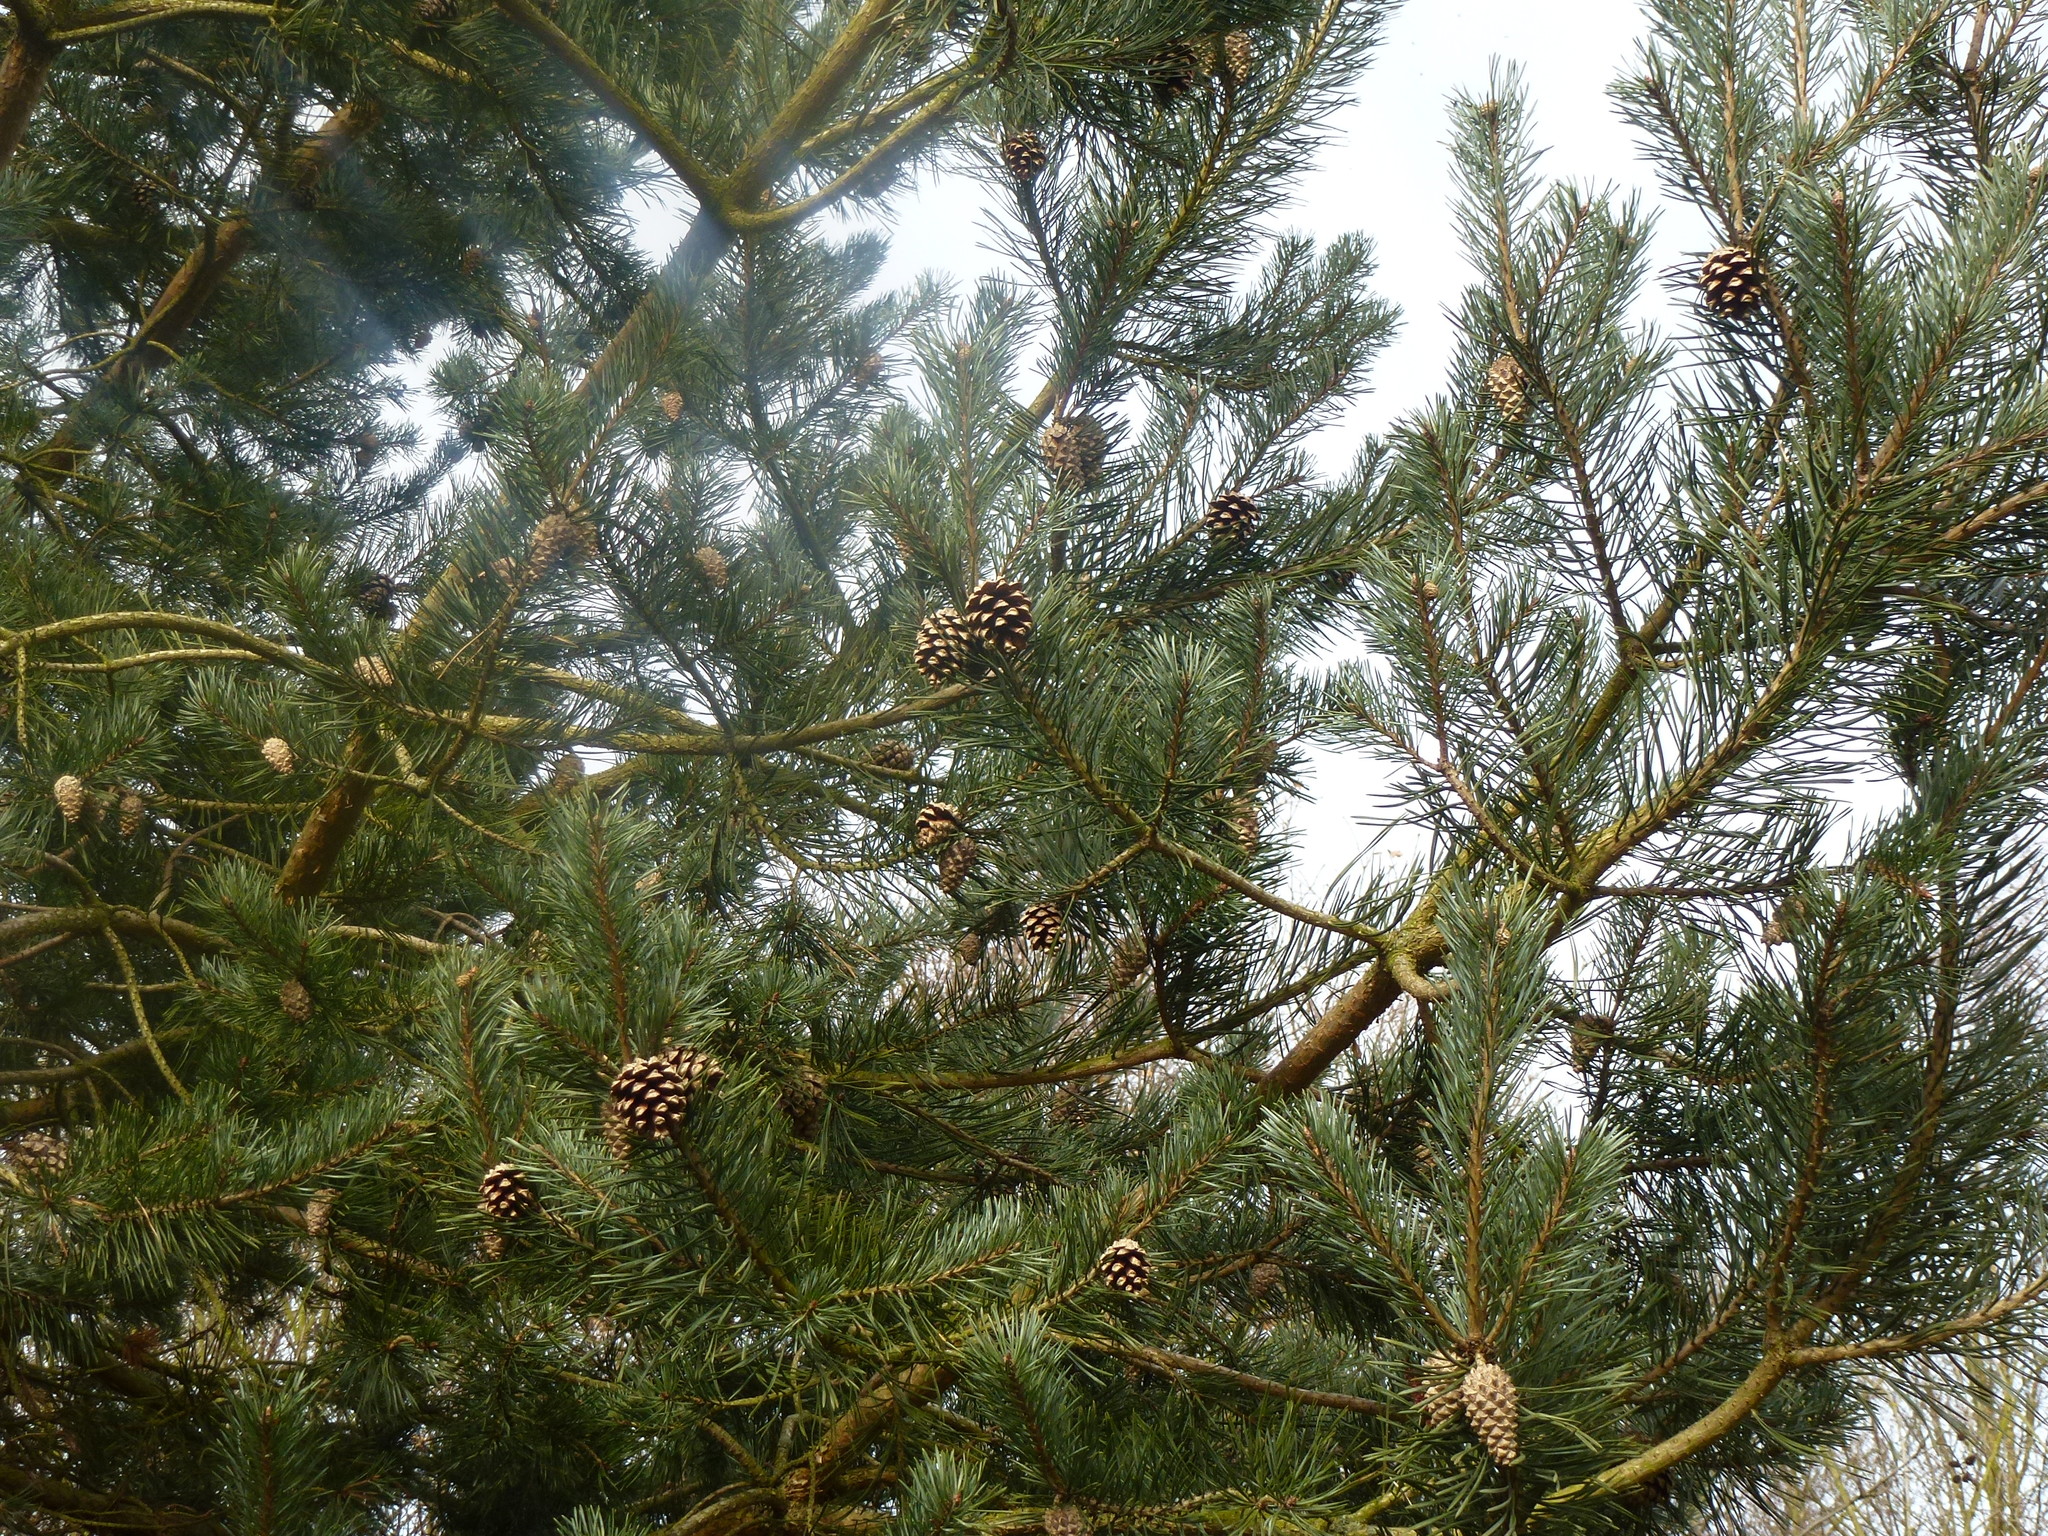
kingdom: Plantae
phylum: Tracheophyta
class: Pinopsida
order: Pinales
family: Pinaceae
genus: Pinus
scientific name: Pinus sylvestris
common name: Scots pine
